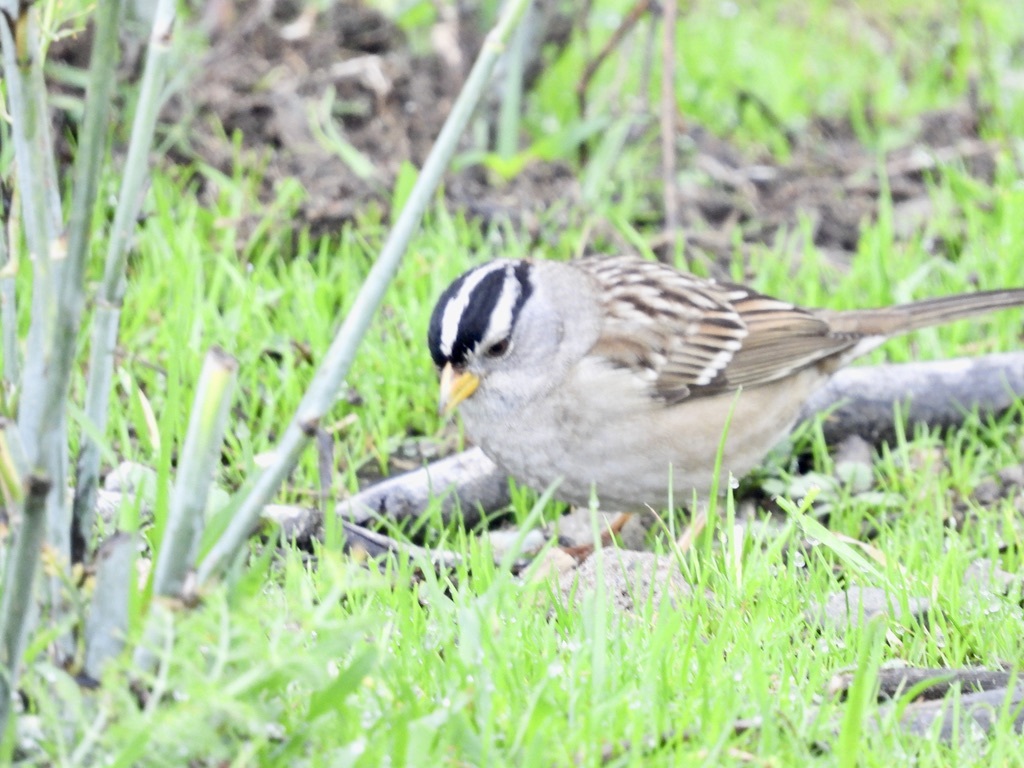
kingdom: Animalia
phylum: Chordata
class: Aves
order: Passeriformes
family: Passerellidae
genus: Zonotrichia
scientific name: Zonotrichia leucophrys
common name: White-crowned sparrow
